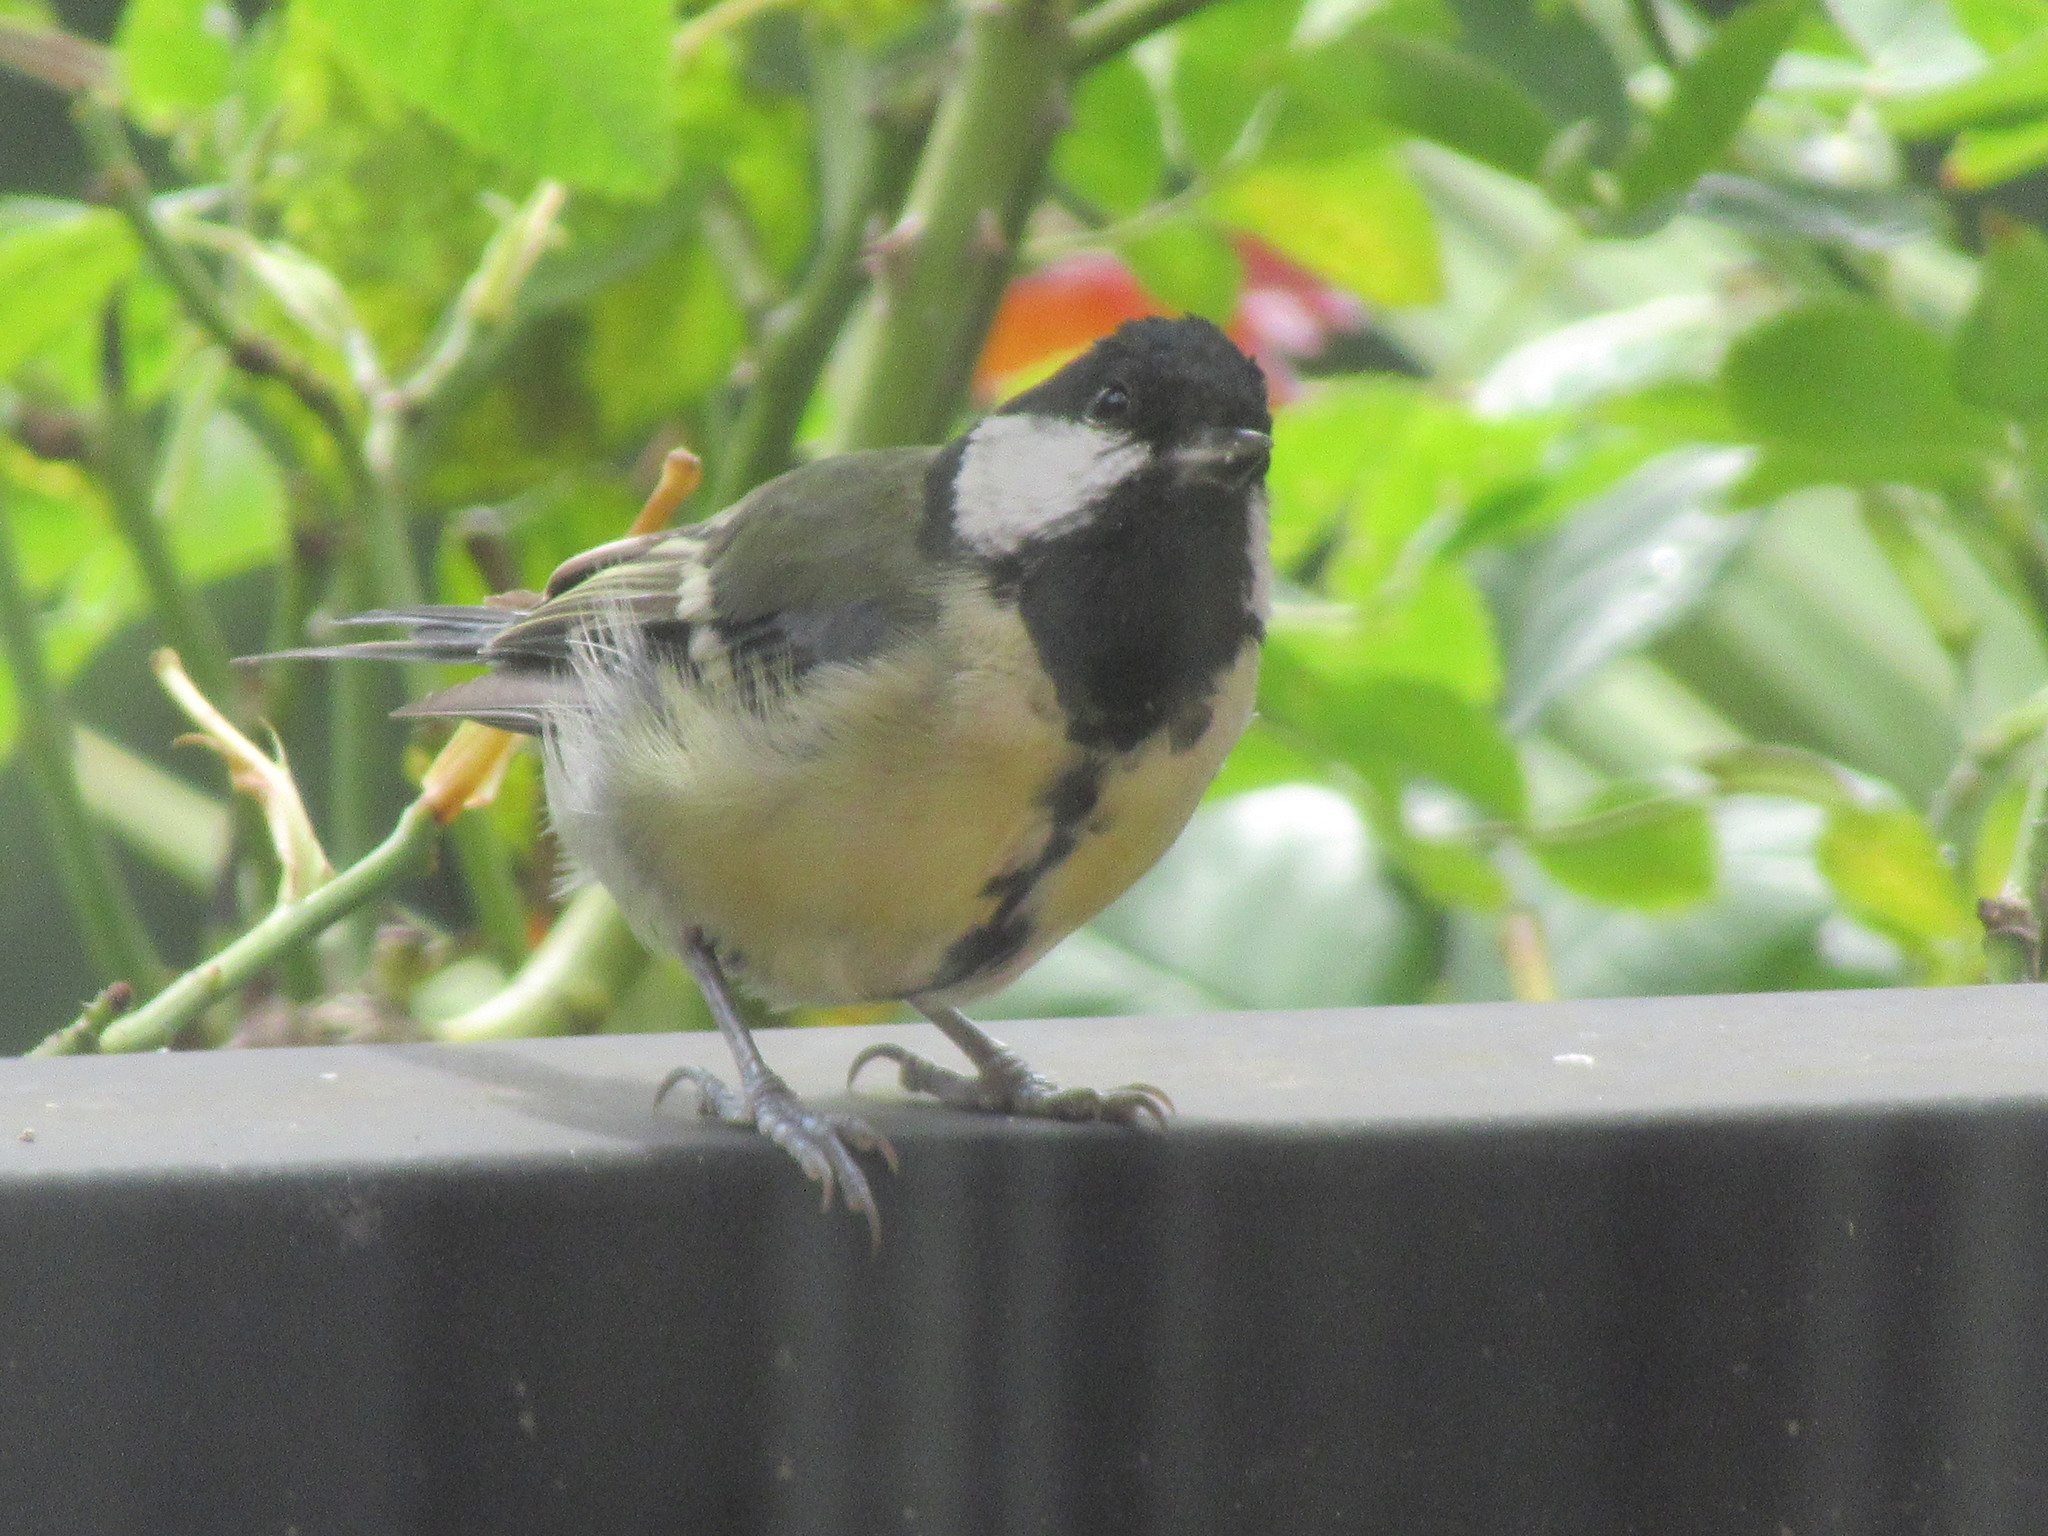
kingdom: Animalia
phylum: Chordata
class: Aves
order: Passeriformes
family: Paridae
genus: Parus
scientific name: Parus major
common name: Great tit
